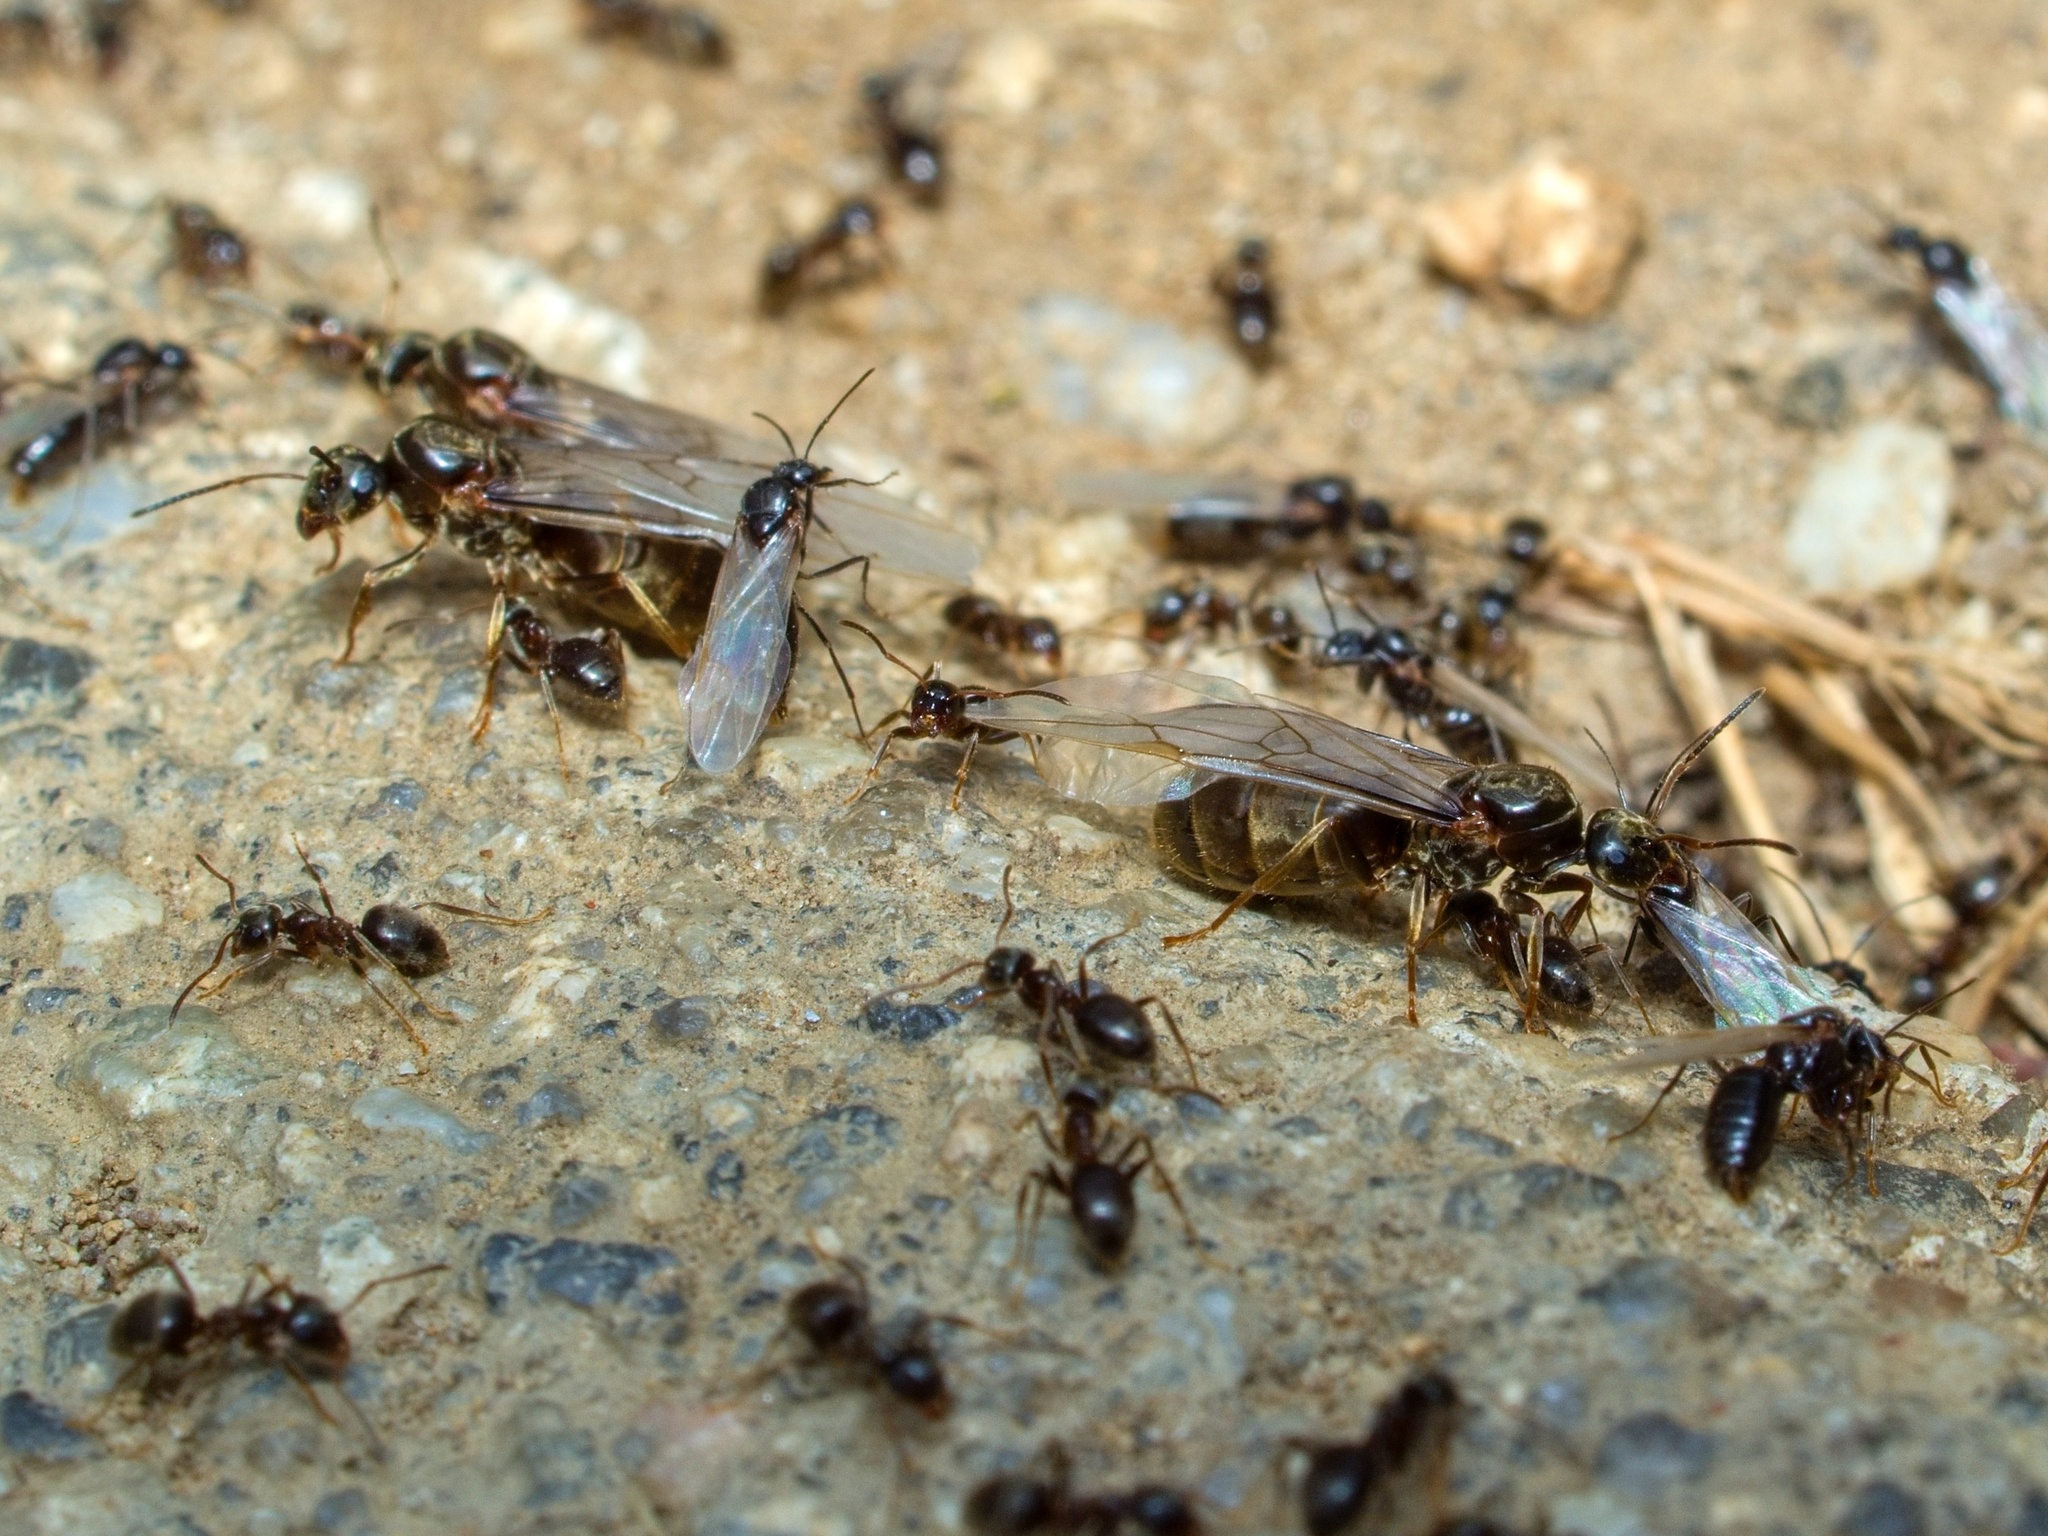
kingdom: Animalia
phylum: Arthropoda
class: Insecta
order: Hymenoptera
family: Formicidae
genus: Lasius
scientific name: Lasius niger
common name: Small black ant
